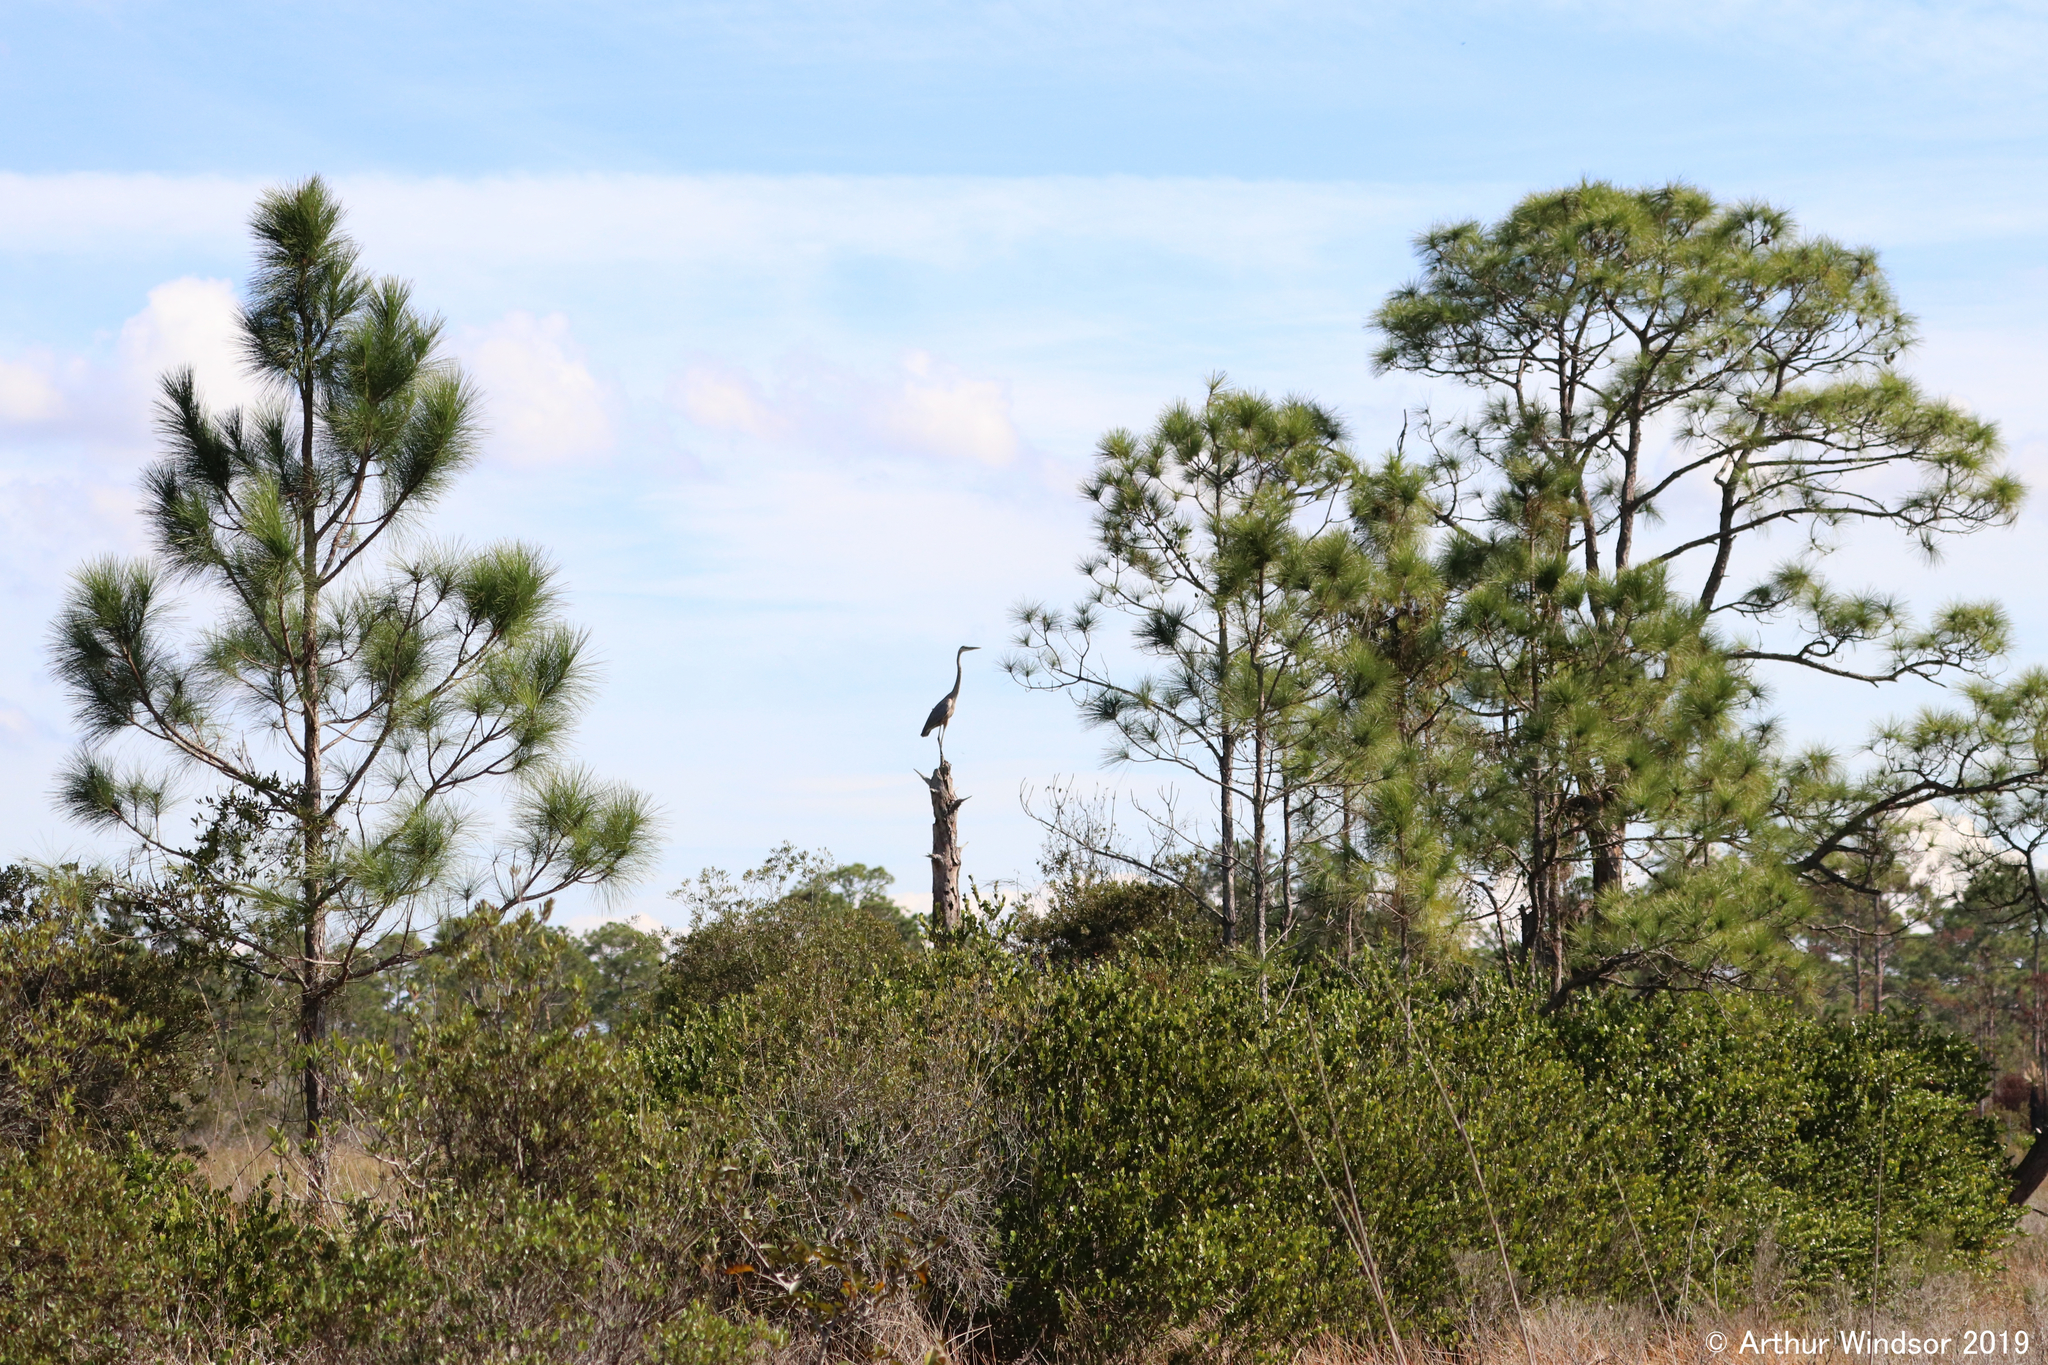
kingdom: Animalia
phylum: Chordata
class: Aves
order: Pelecaniformes
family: Ardeidae
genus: Ardea
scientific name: Ardea herodias
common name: Great blue heron
